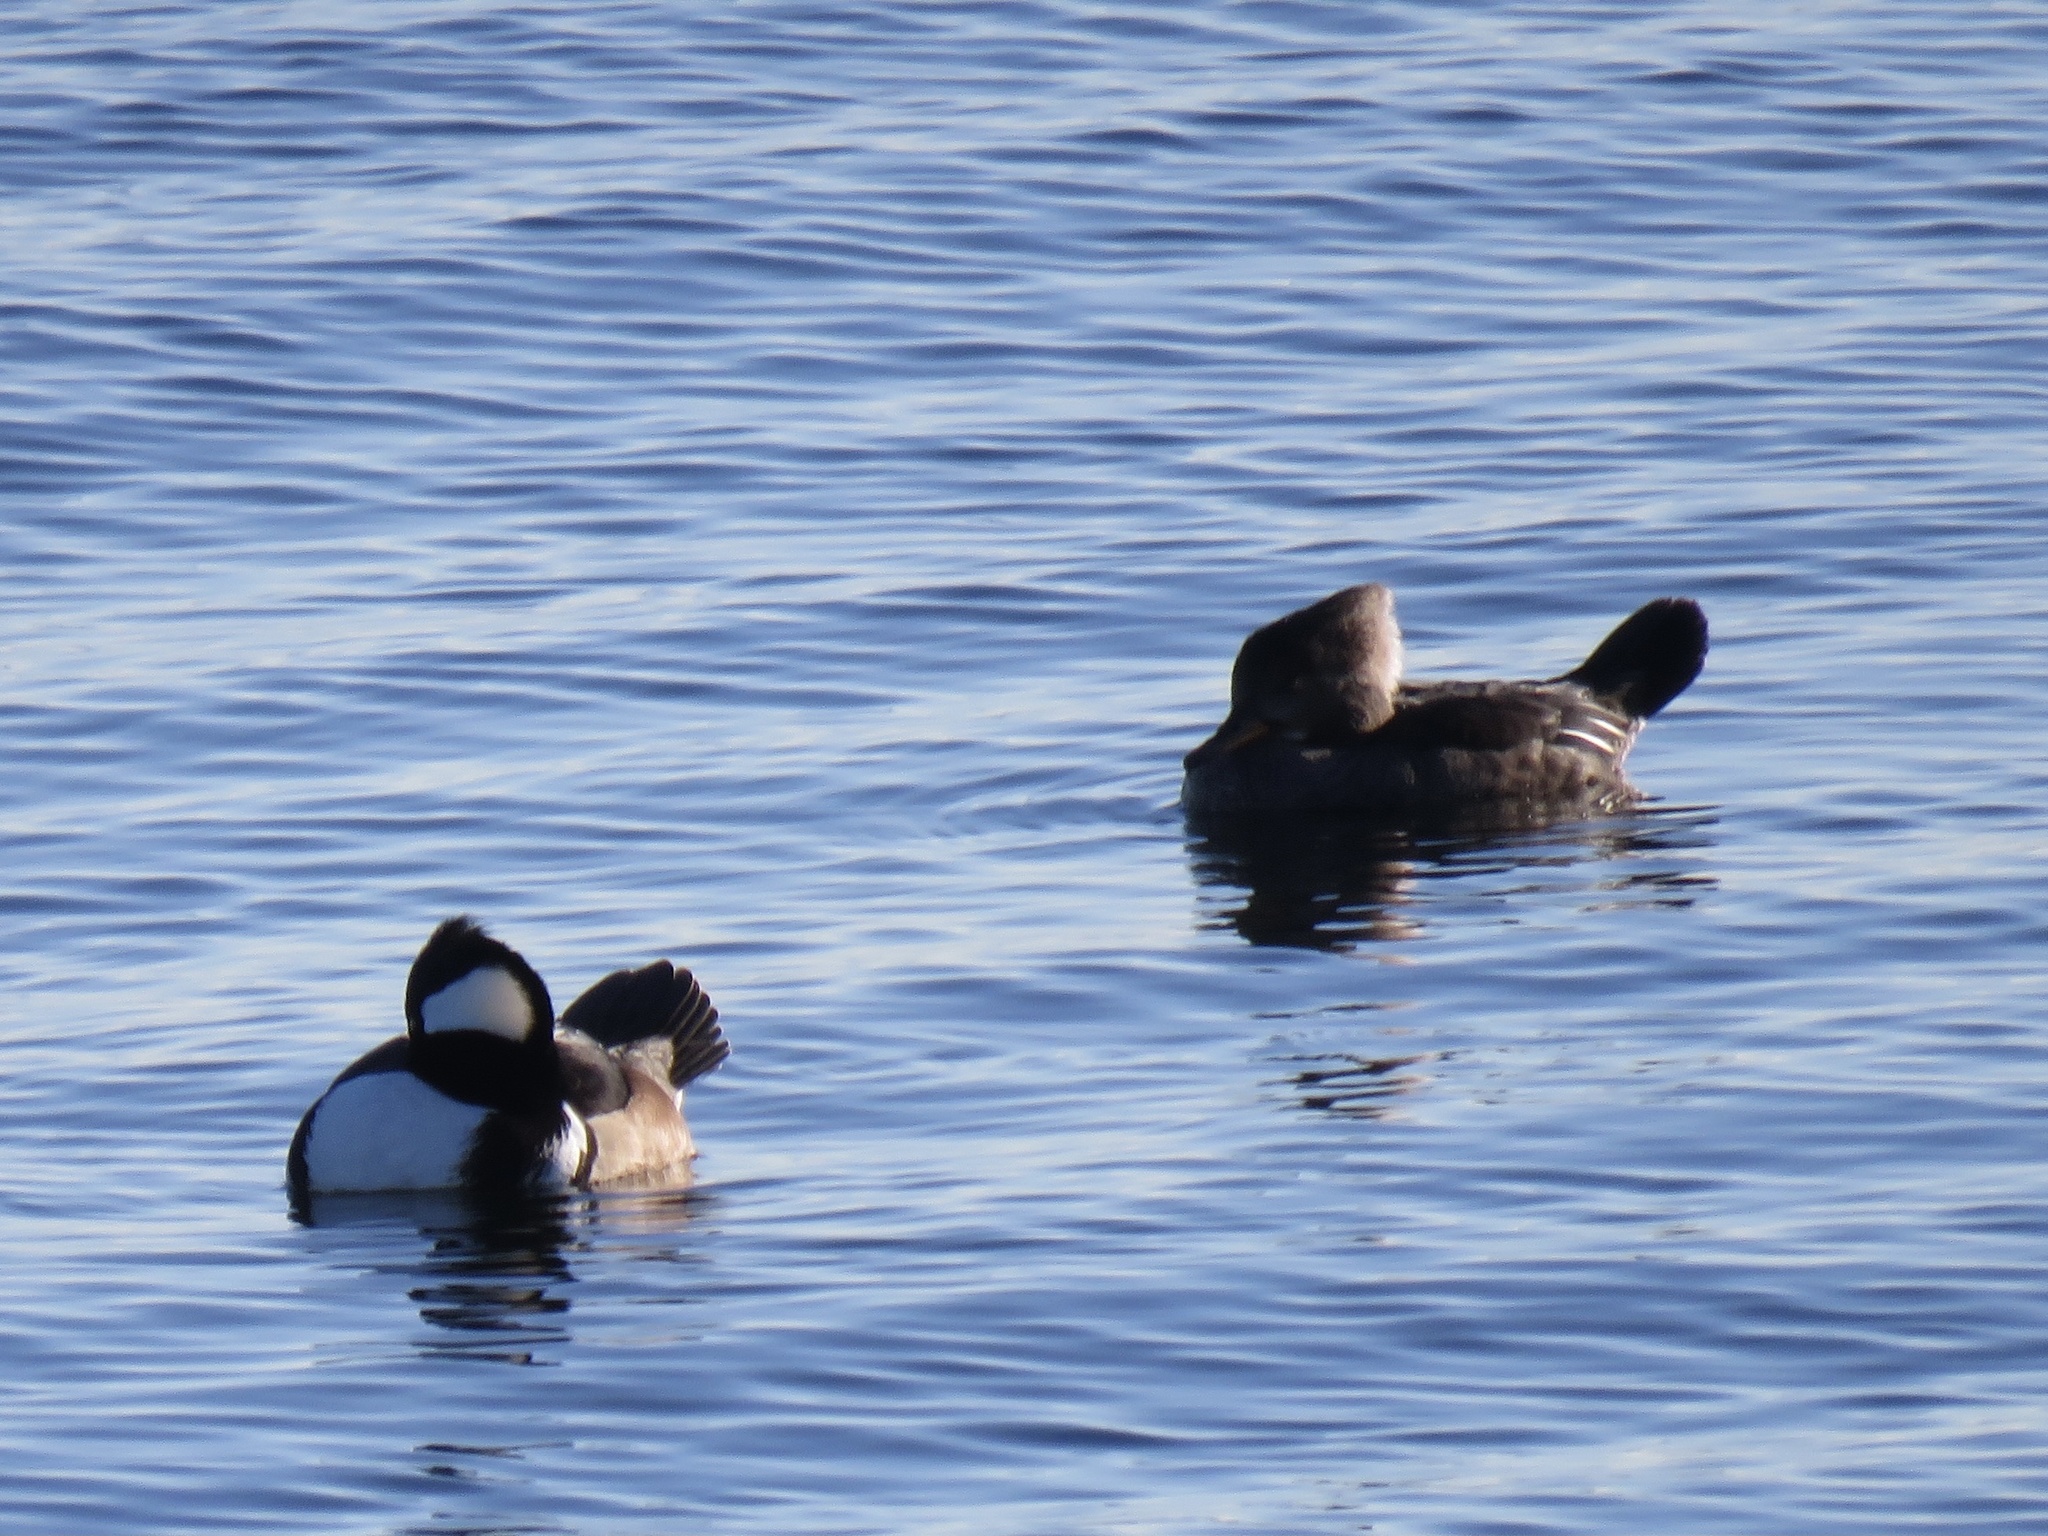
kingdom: Animalia
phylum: Chordata
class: Aves
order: Anseriformes
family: Anatidae
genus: Lophodytes
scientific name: Lophodytes cucullatus
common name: Hooded merganser
